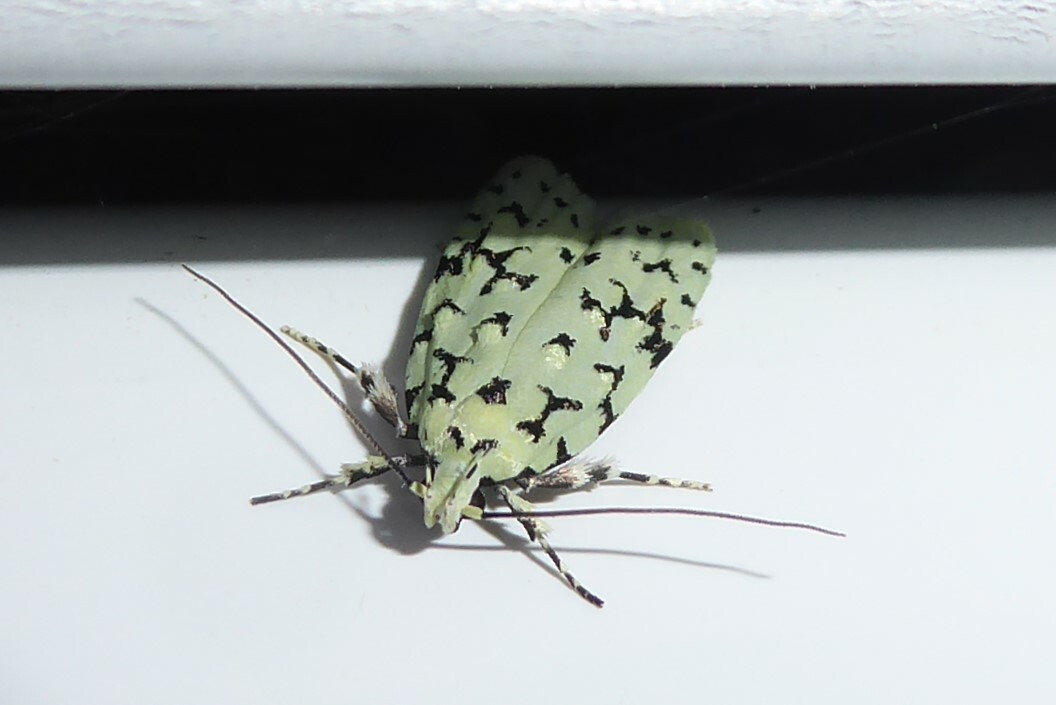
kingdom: Animalia
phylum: Arthropoda
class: Insecta
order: Lepidoptera
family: Oecophoridae
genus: Izatha
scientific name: Izatha huttoni
